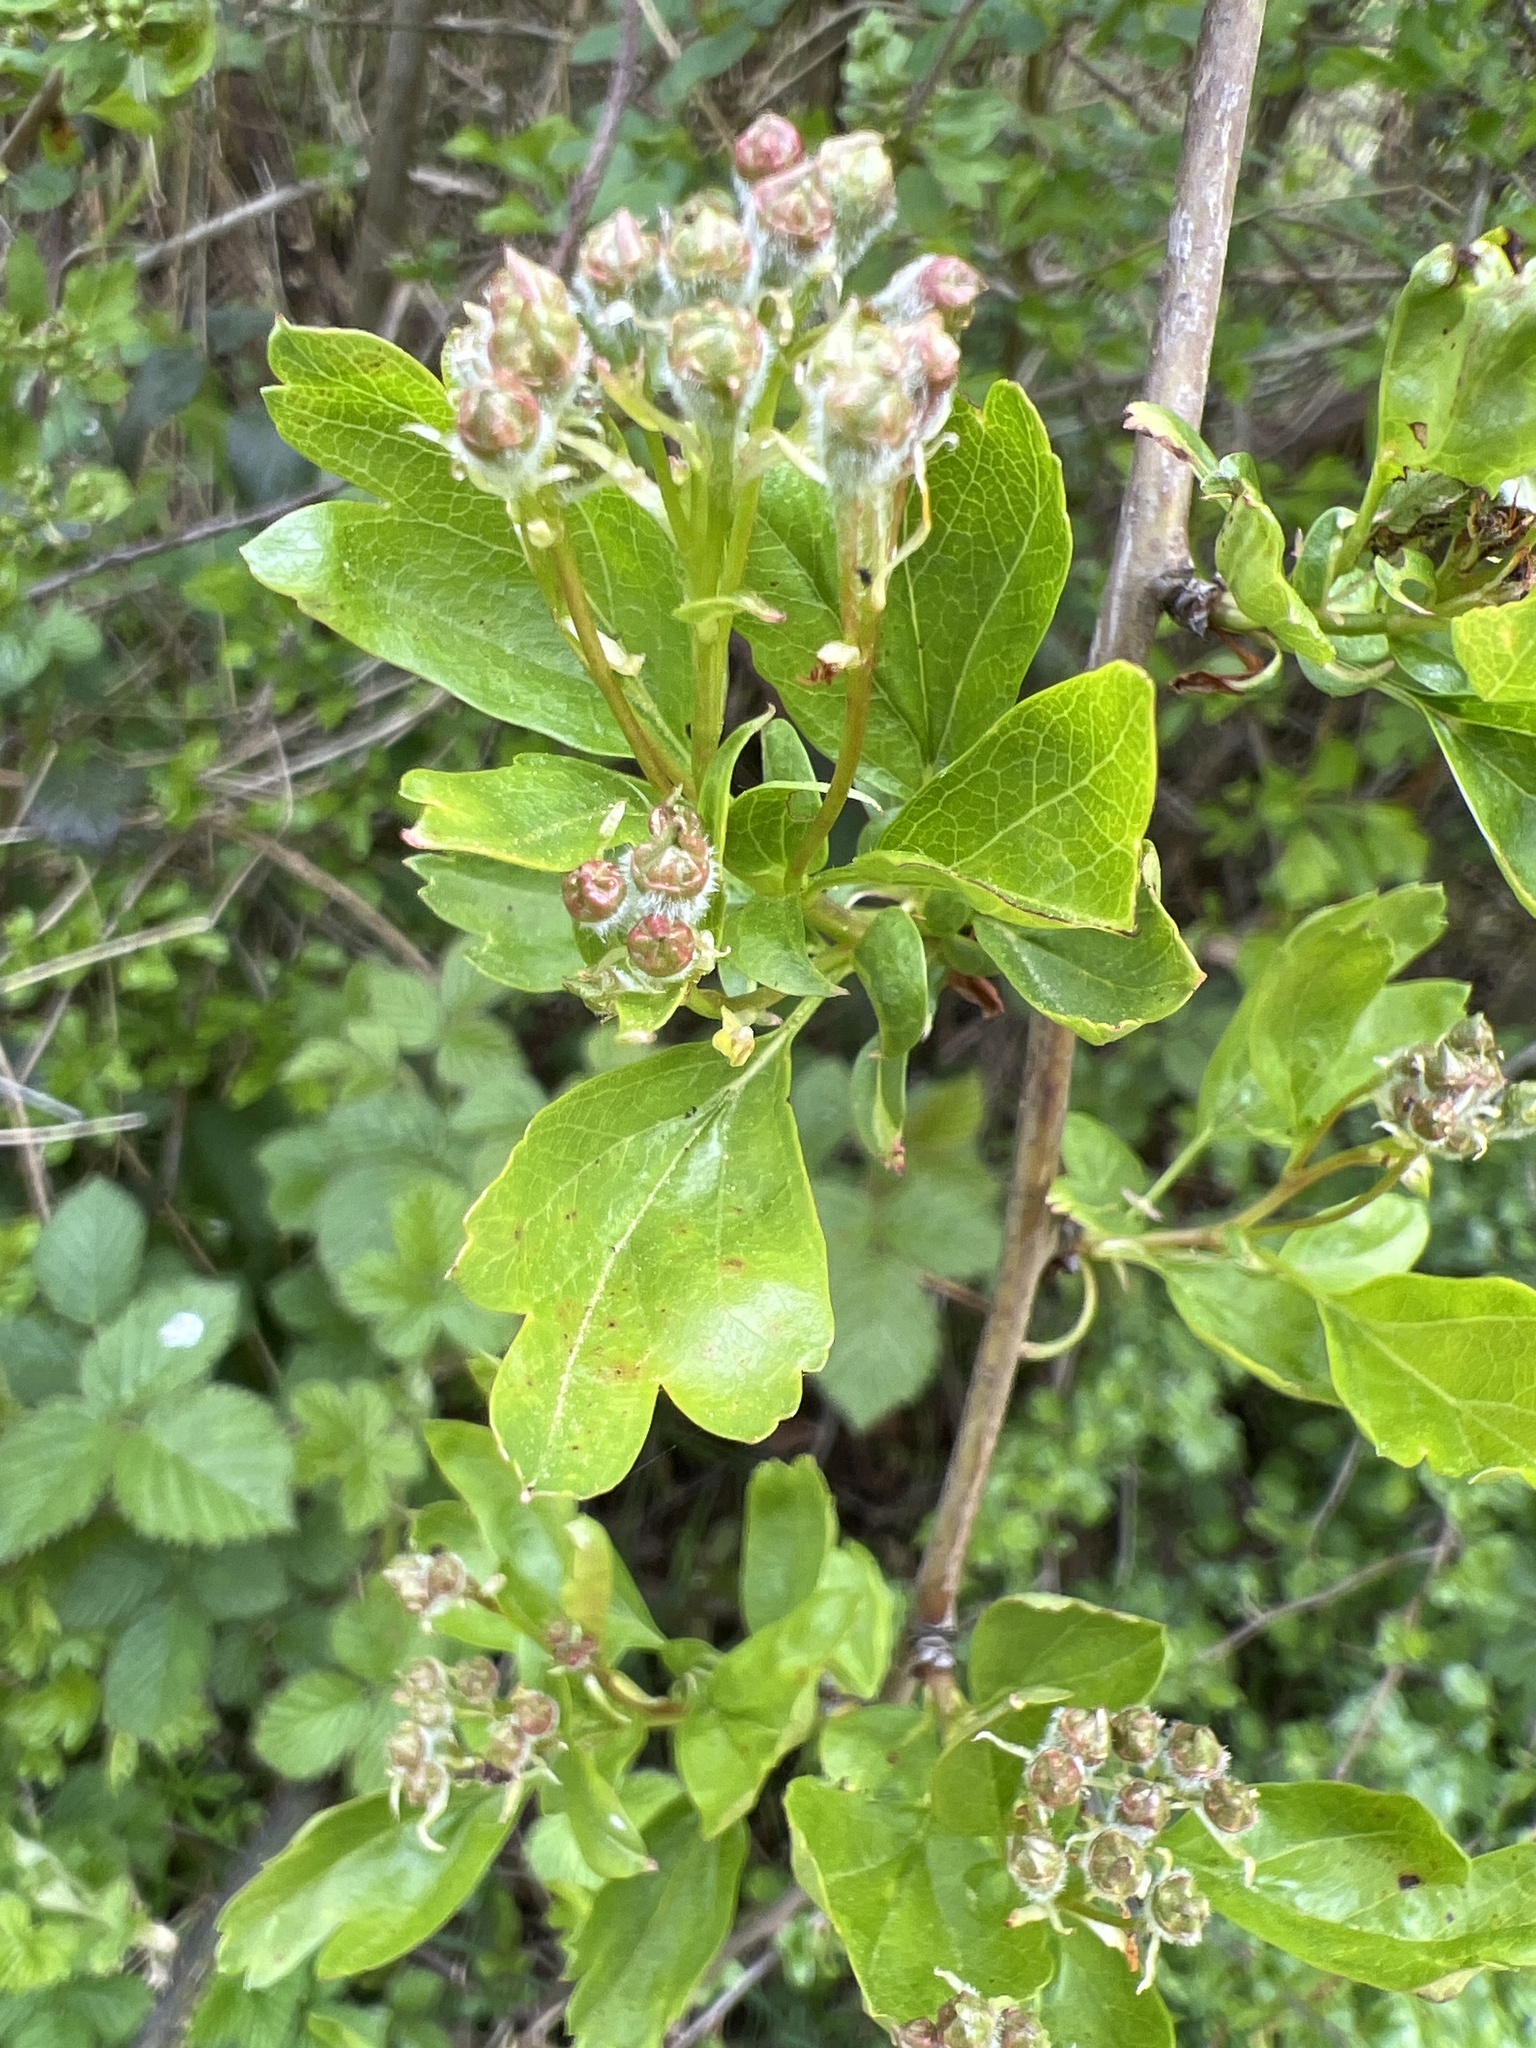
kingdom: Plantae
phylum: Tracheophyta
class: Magnoliopsida
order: Rosales
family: Rosaceae
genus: Crataegus
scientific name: Crataegus laevigata
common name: Midland hawthorn
